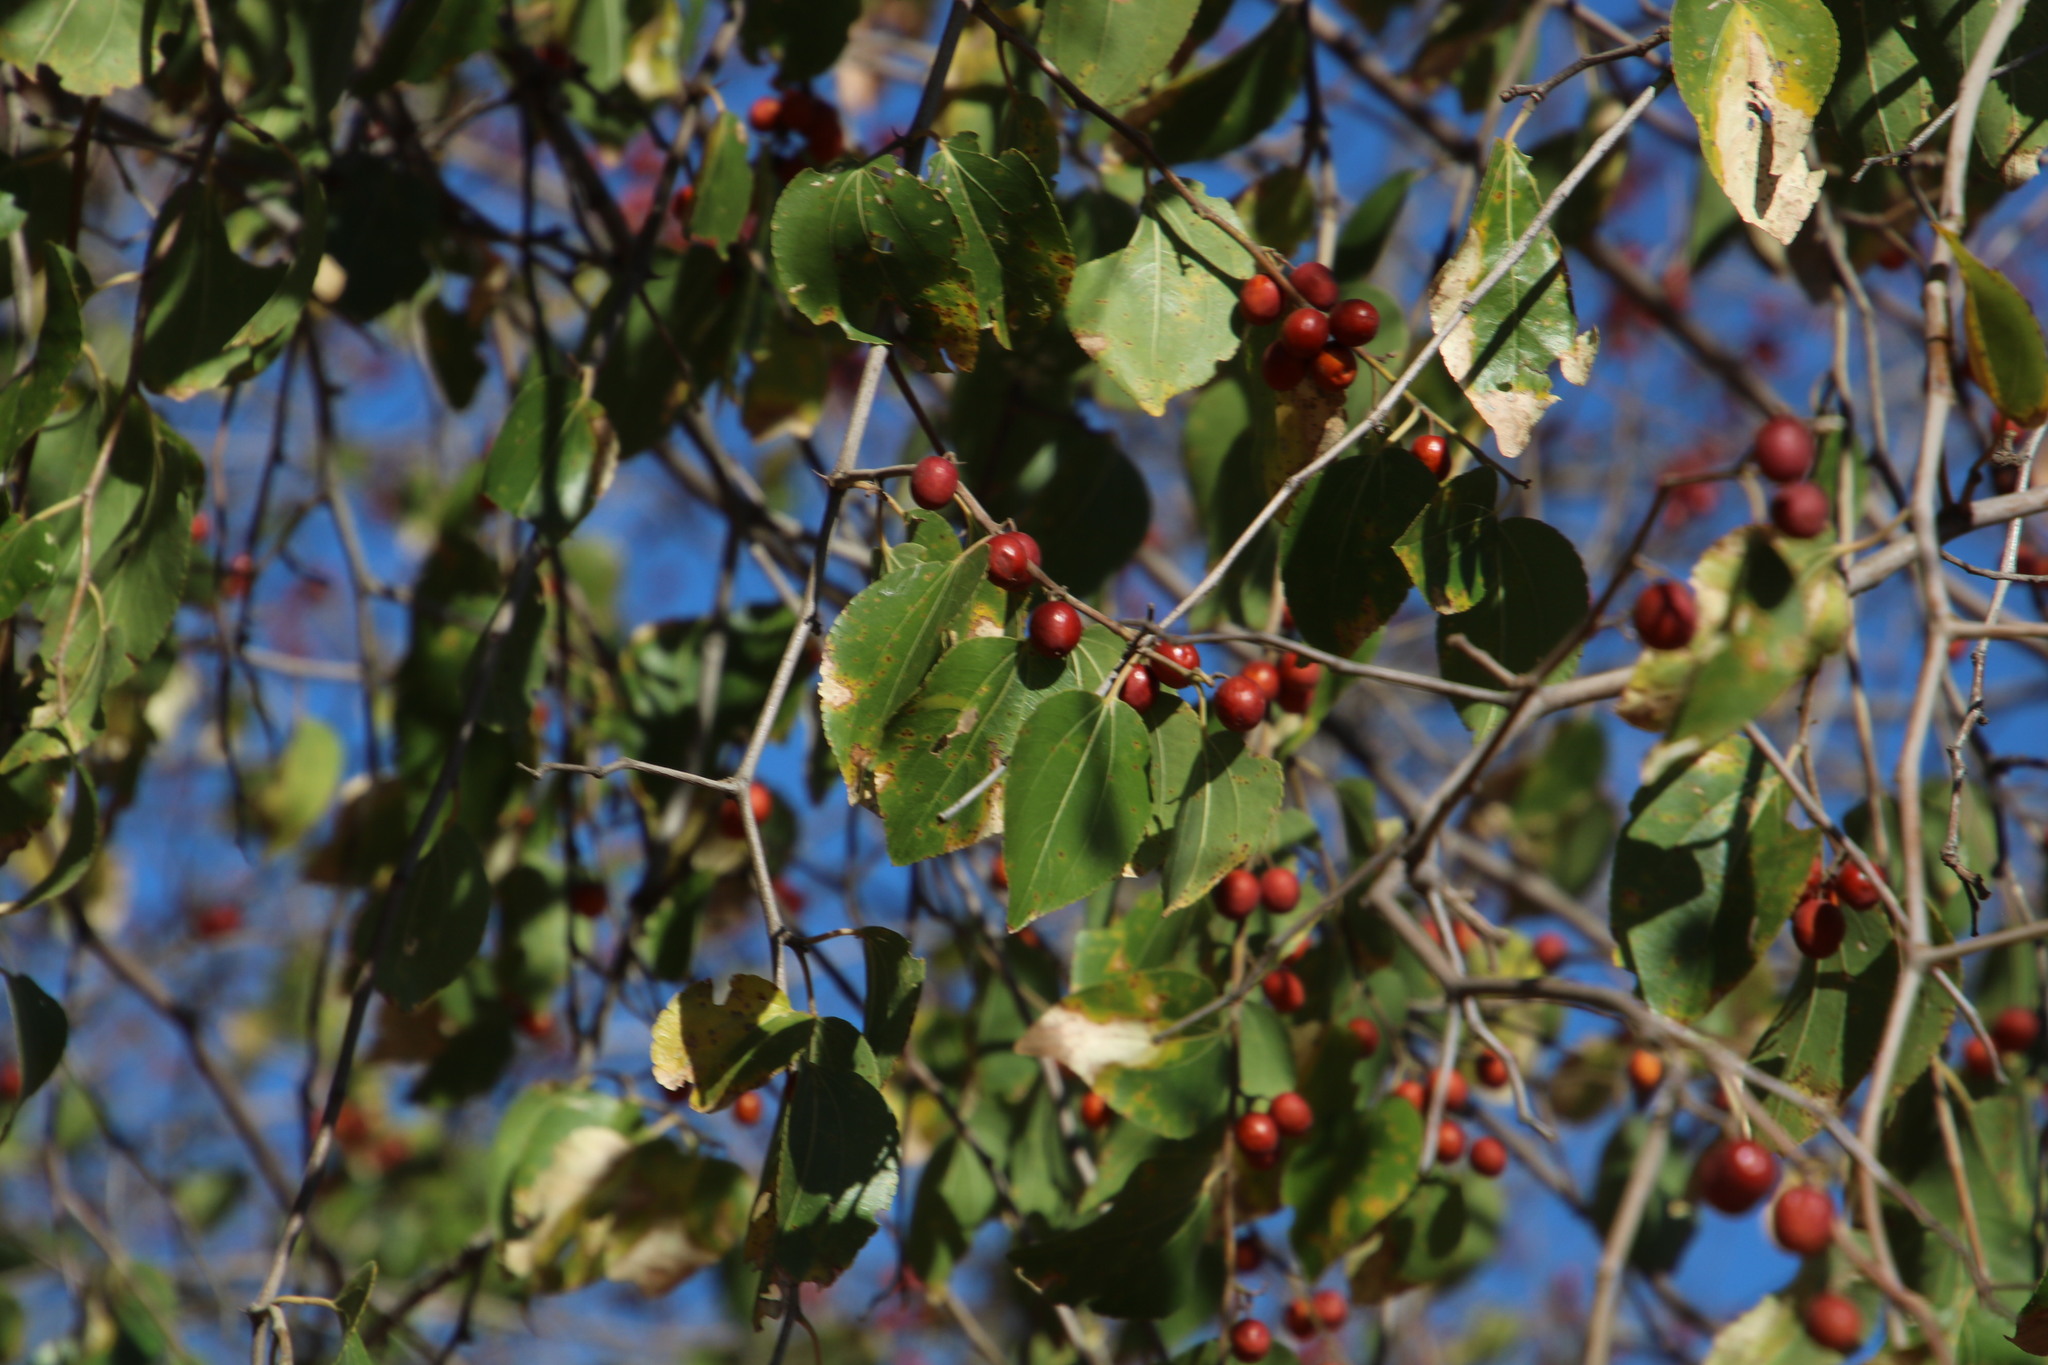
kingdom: Plantae
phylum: Tracheophyta
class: Magnoliopsida
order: Rosales
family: Rhamnaceae
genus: Ziziphus
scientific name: Ziziphus mucronata
